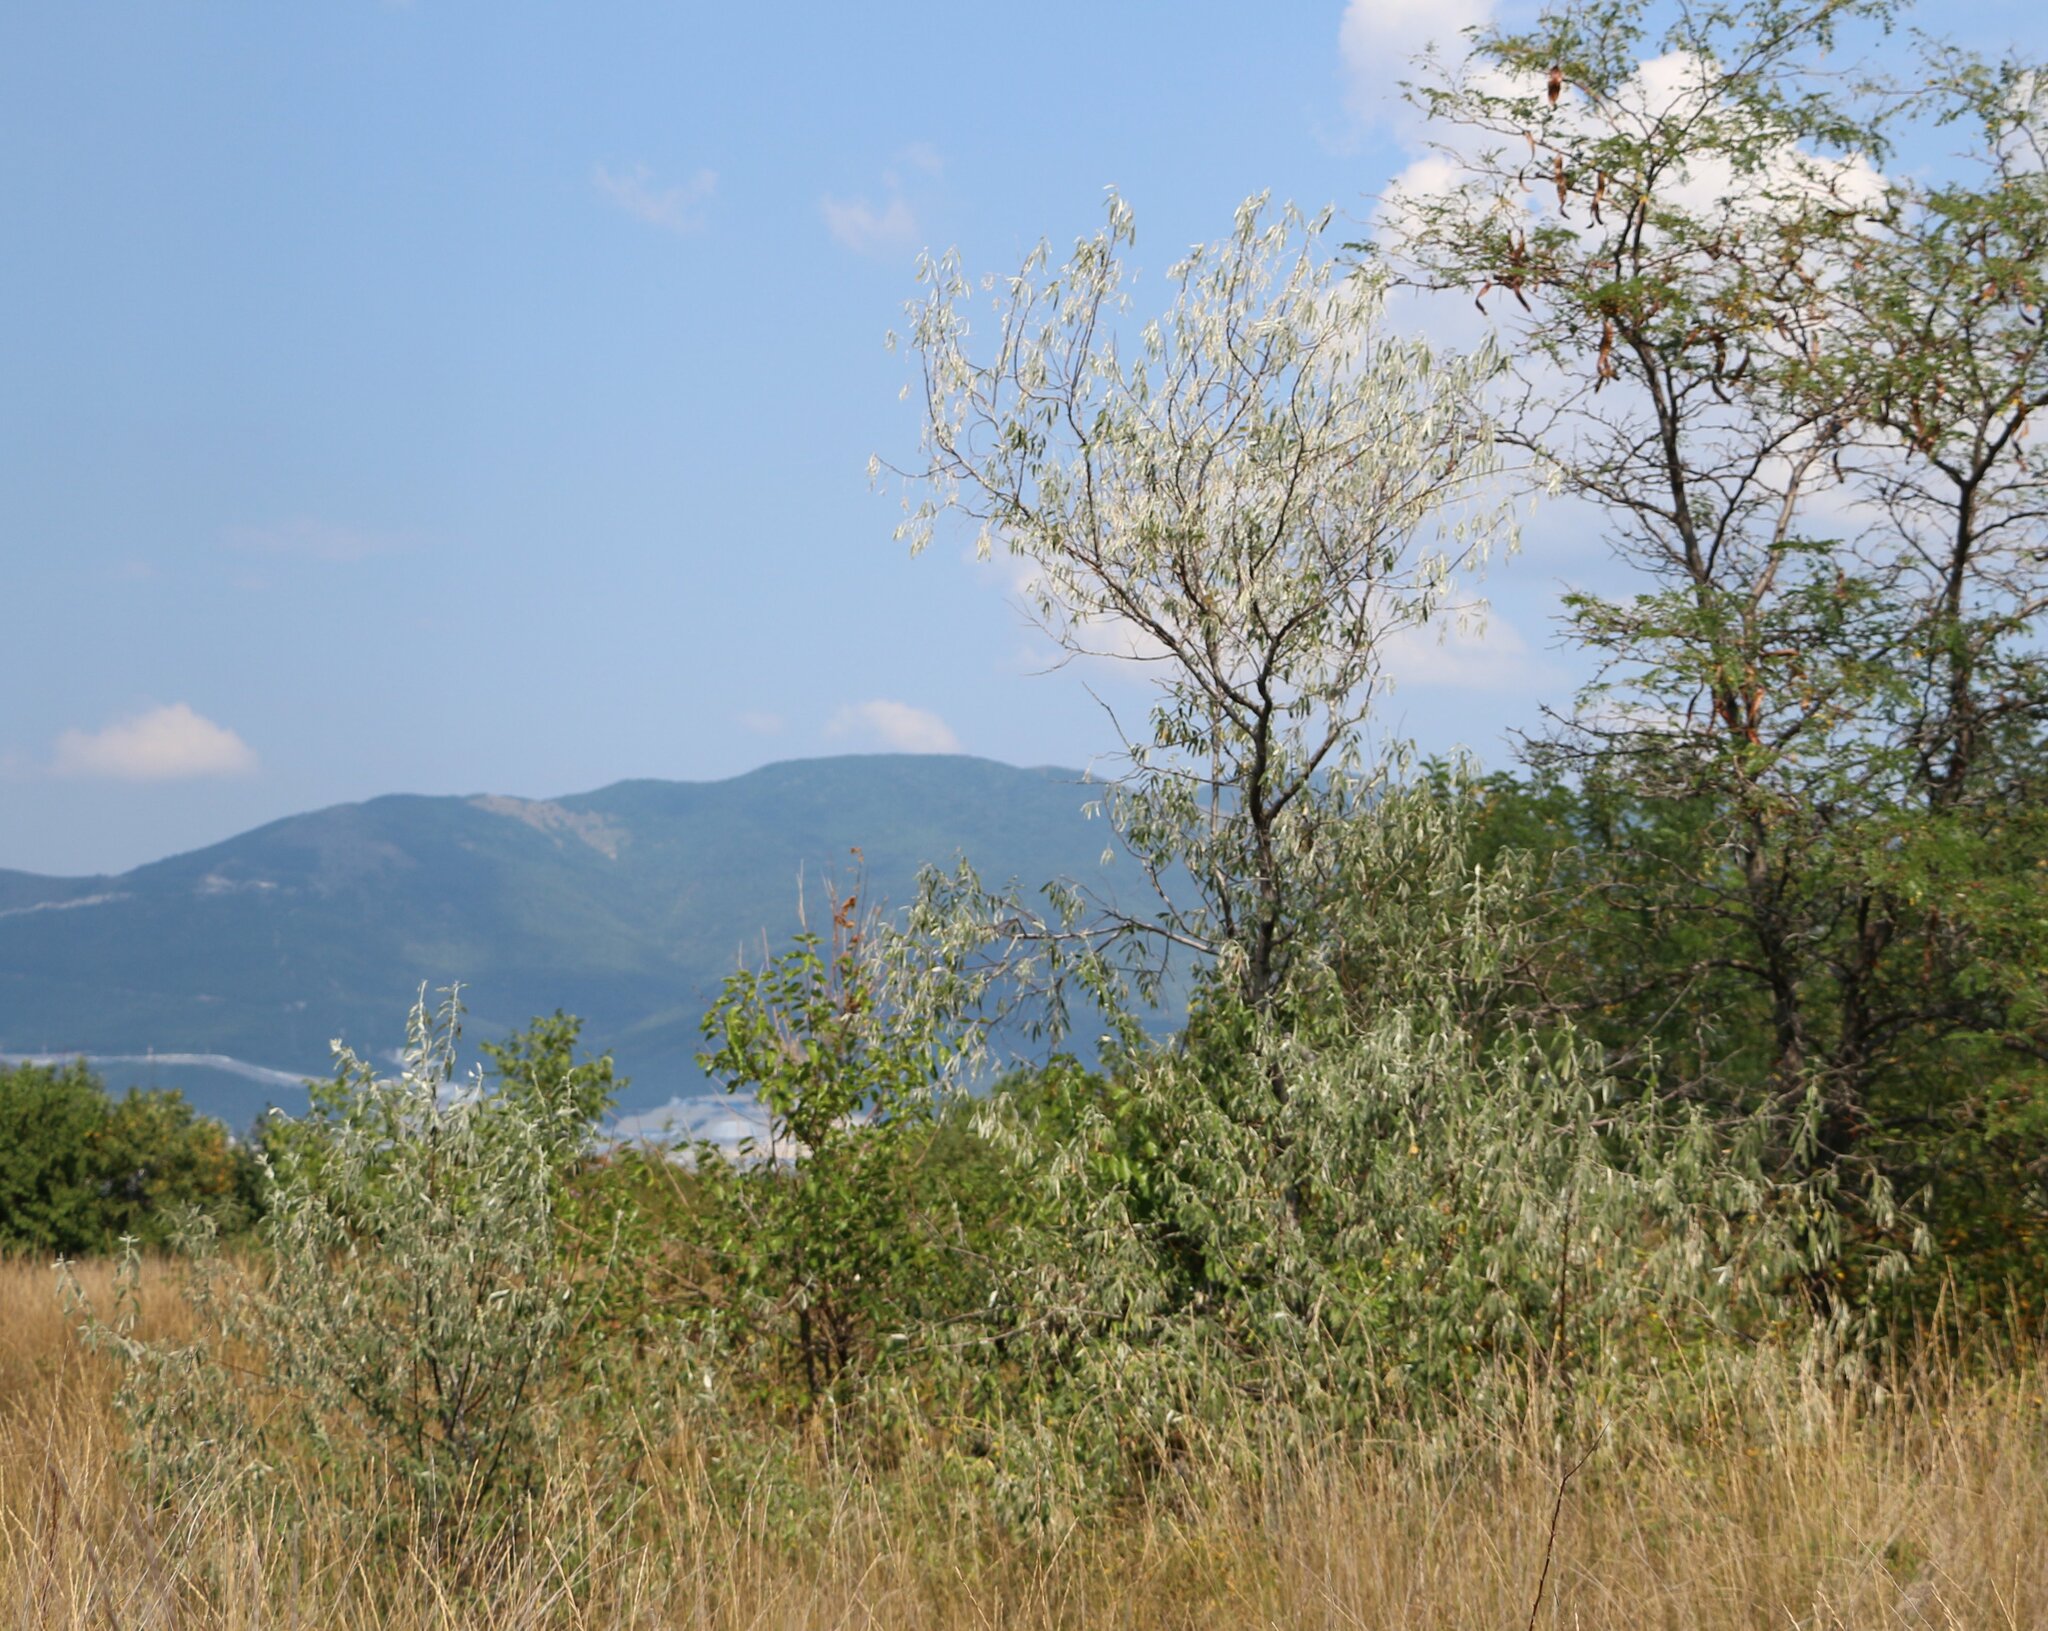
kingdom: Plantae
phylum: Tracheophyta
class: Magnoliopsida
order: Rosales
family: Elaeagnaceae
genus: Elaeagnus
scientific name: Elaeagnus angustifolia
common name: Russian olive
